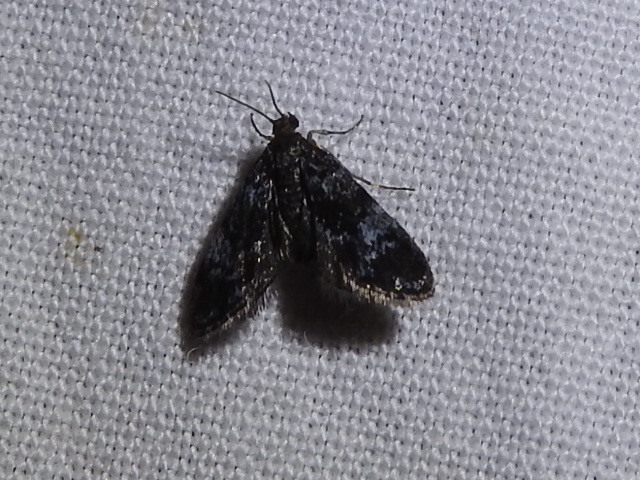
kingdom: Animalia
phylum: Arthropoda
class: Insecta
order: Lepidoptera
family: Crambidae
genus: Elophila
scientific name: Elophila tinealis
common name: Black duckweed moth
